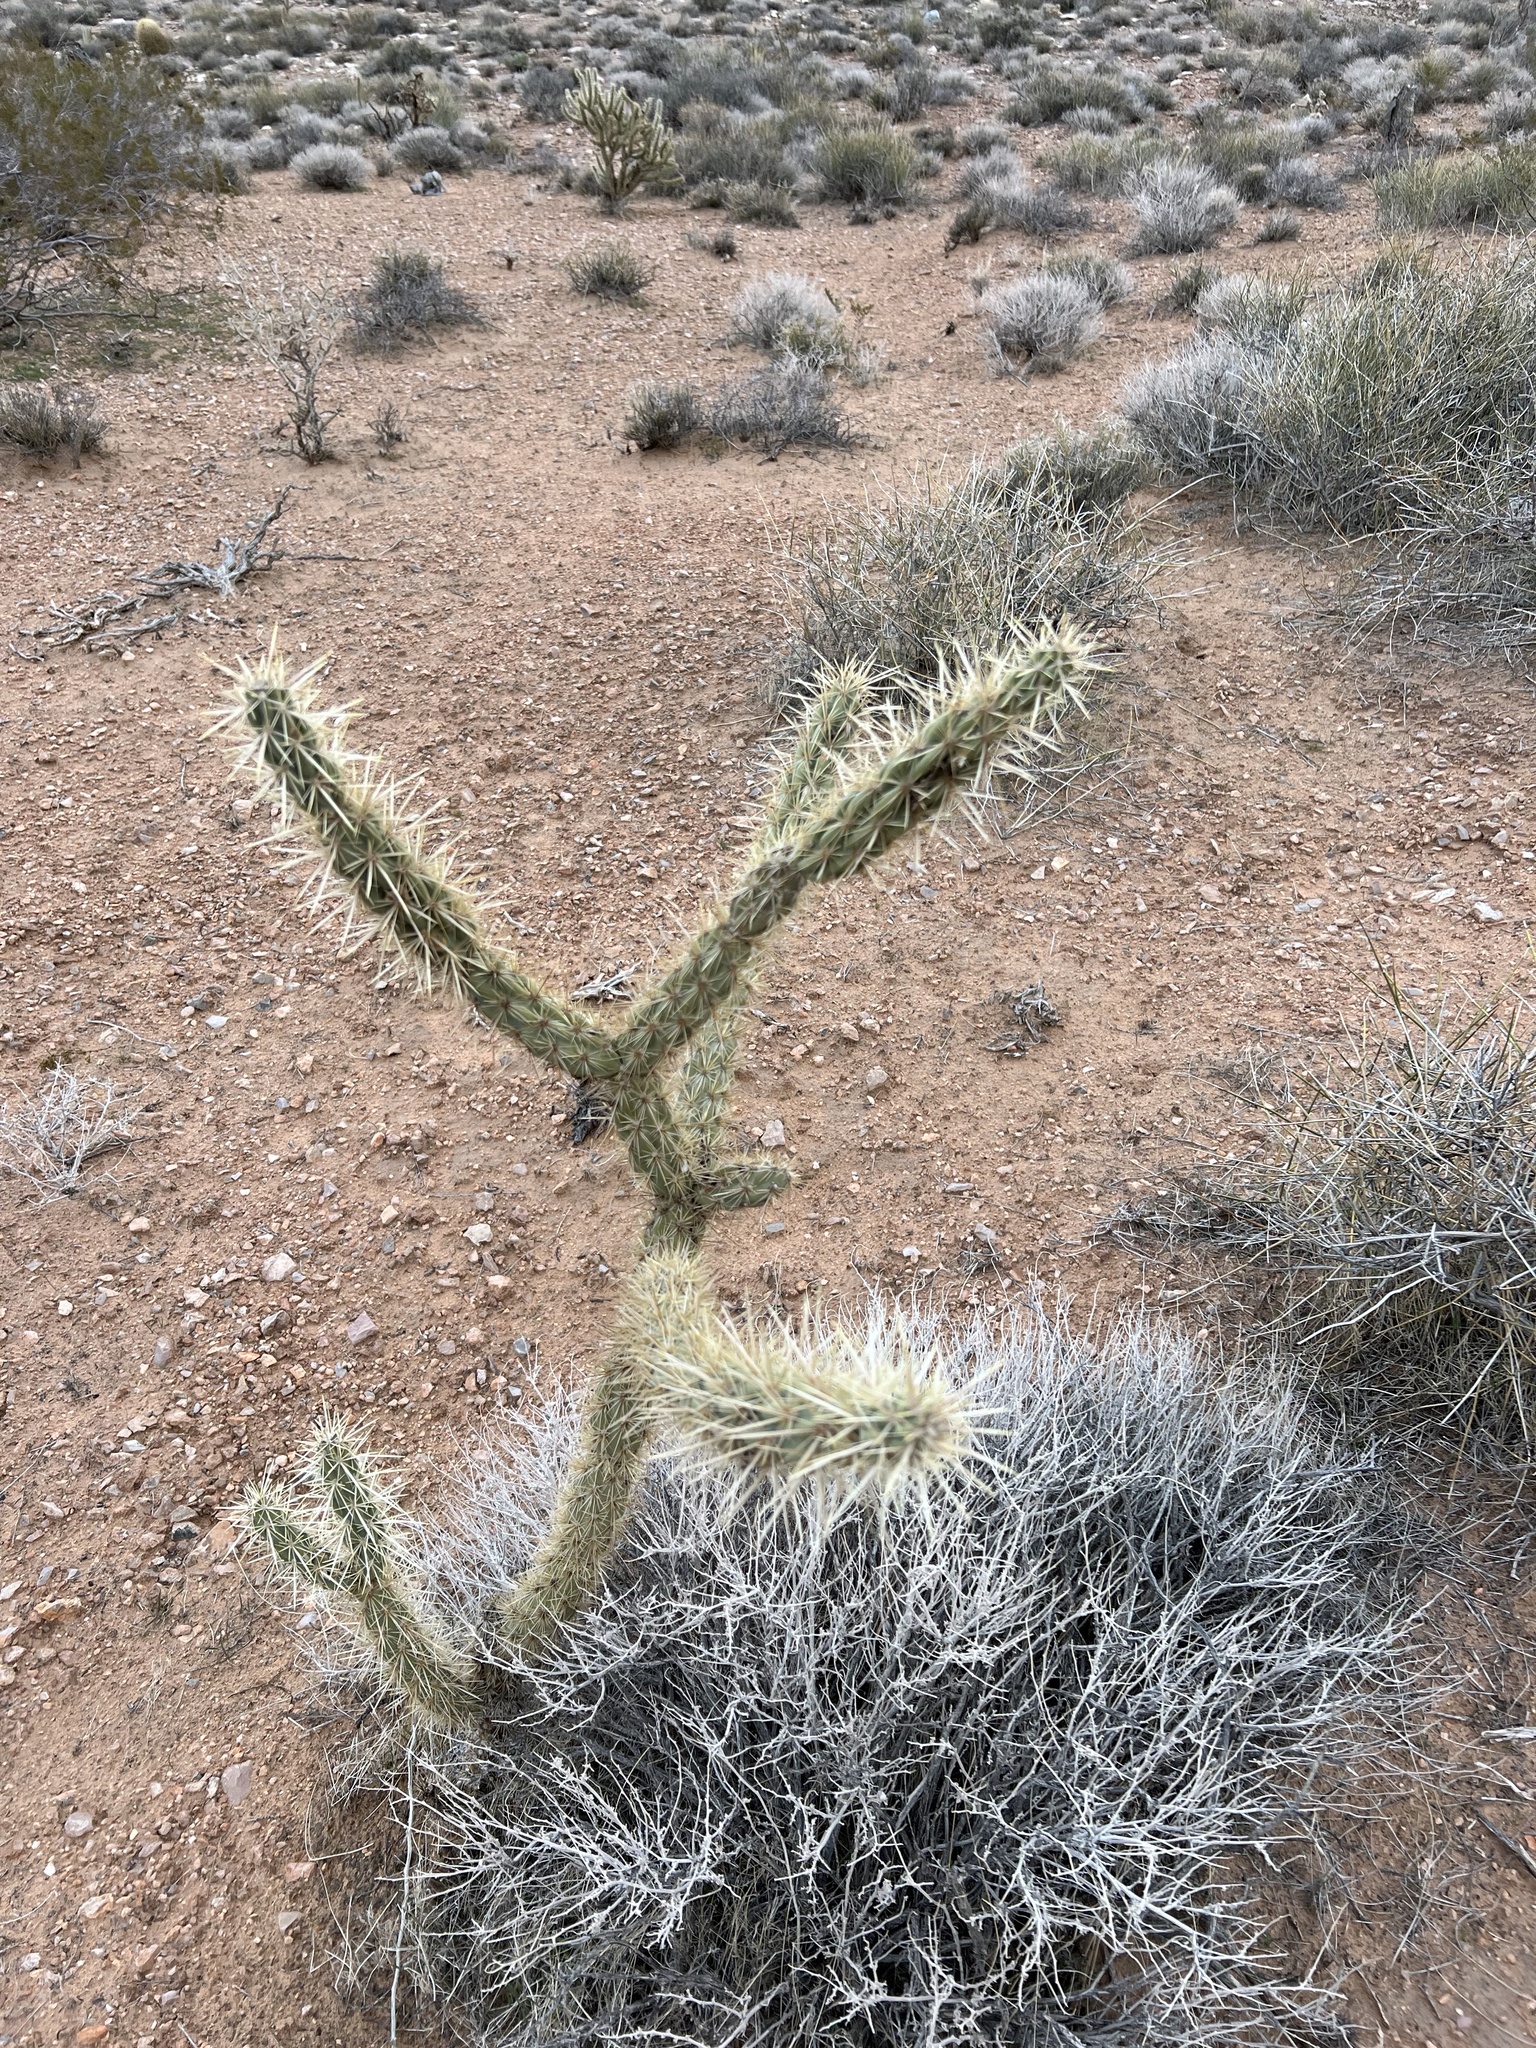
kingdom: Plantae
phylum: Tracheophyta
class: Magnoliopsida
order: Caryophyllales
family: Cactaceae
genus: Cylindropuntia
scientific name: Cylindropuntia acanthocarpa
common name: Buckhorn cholla
